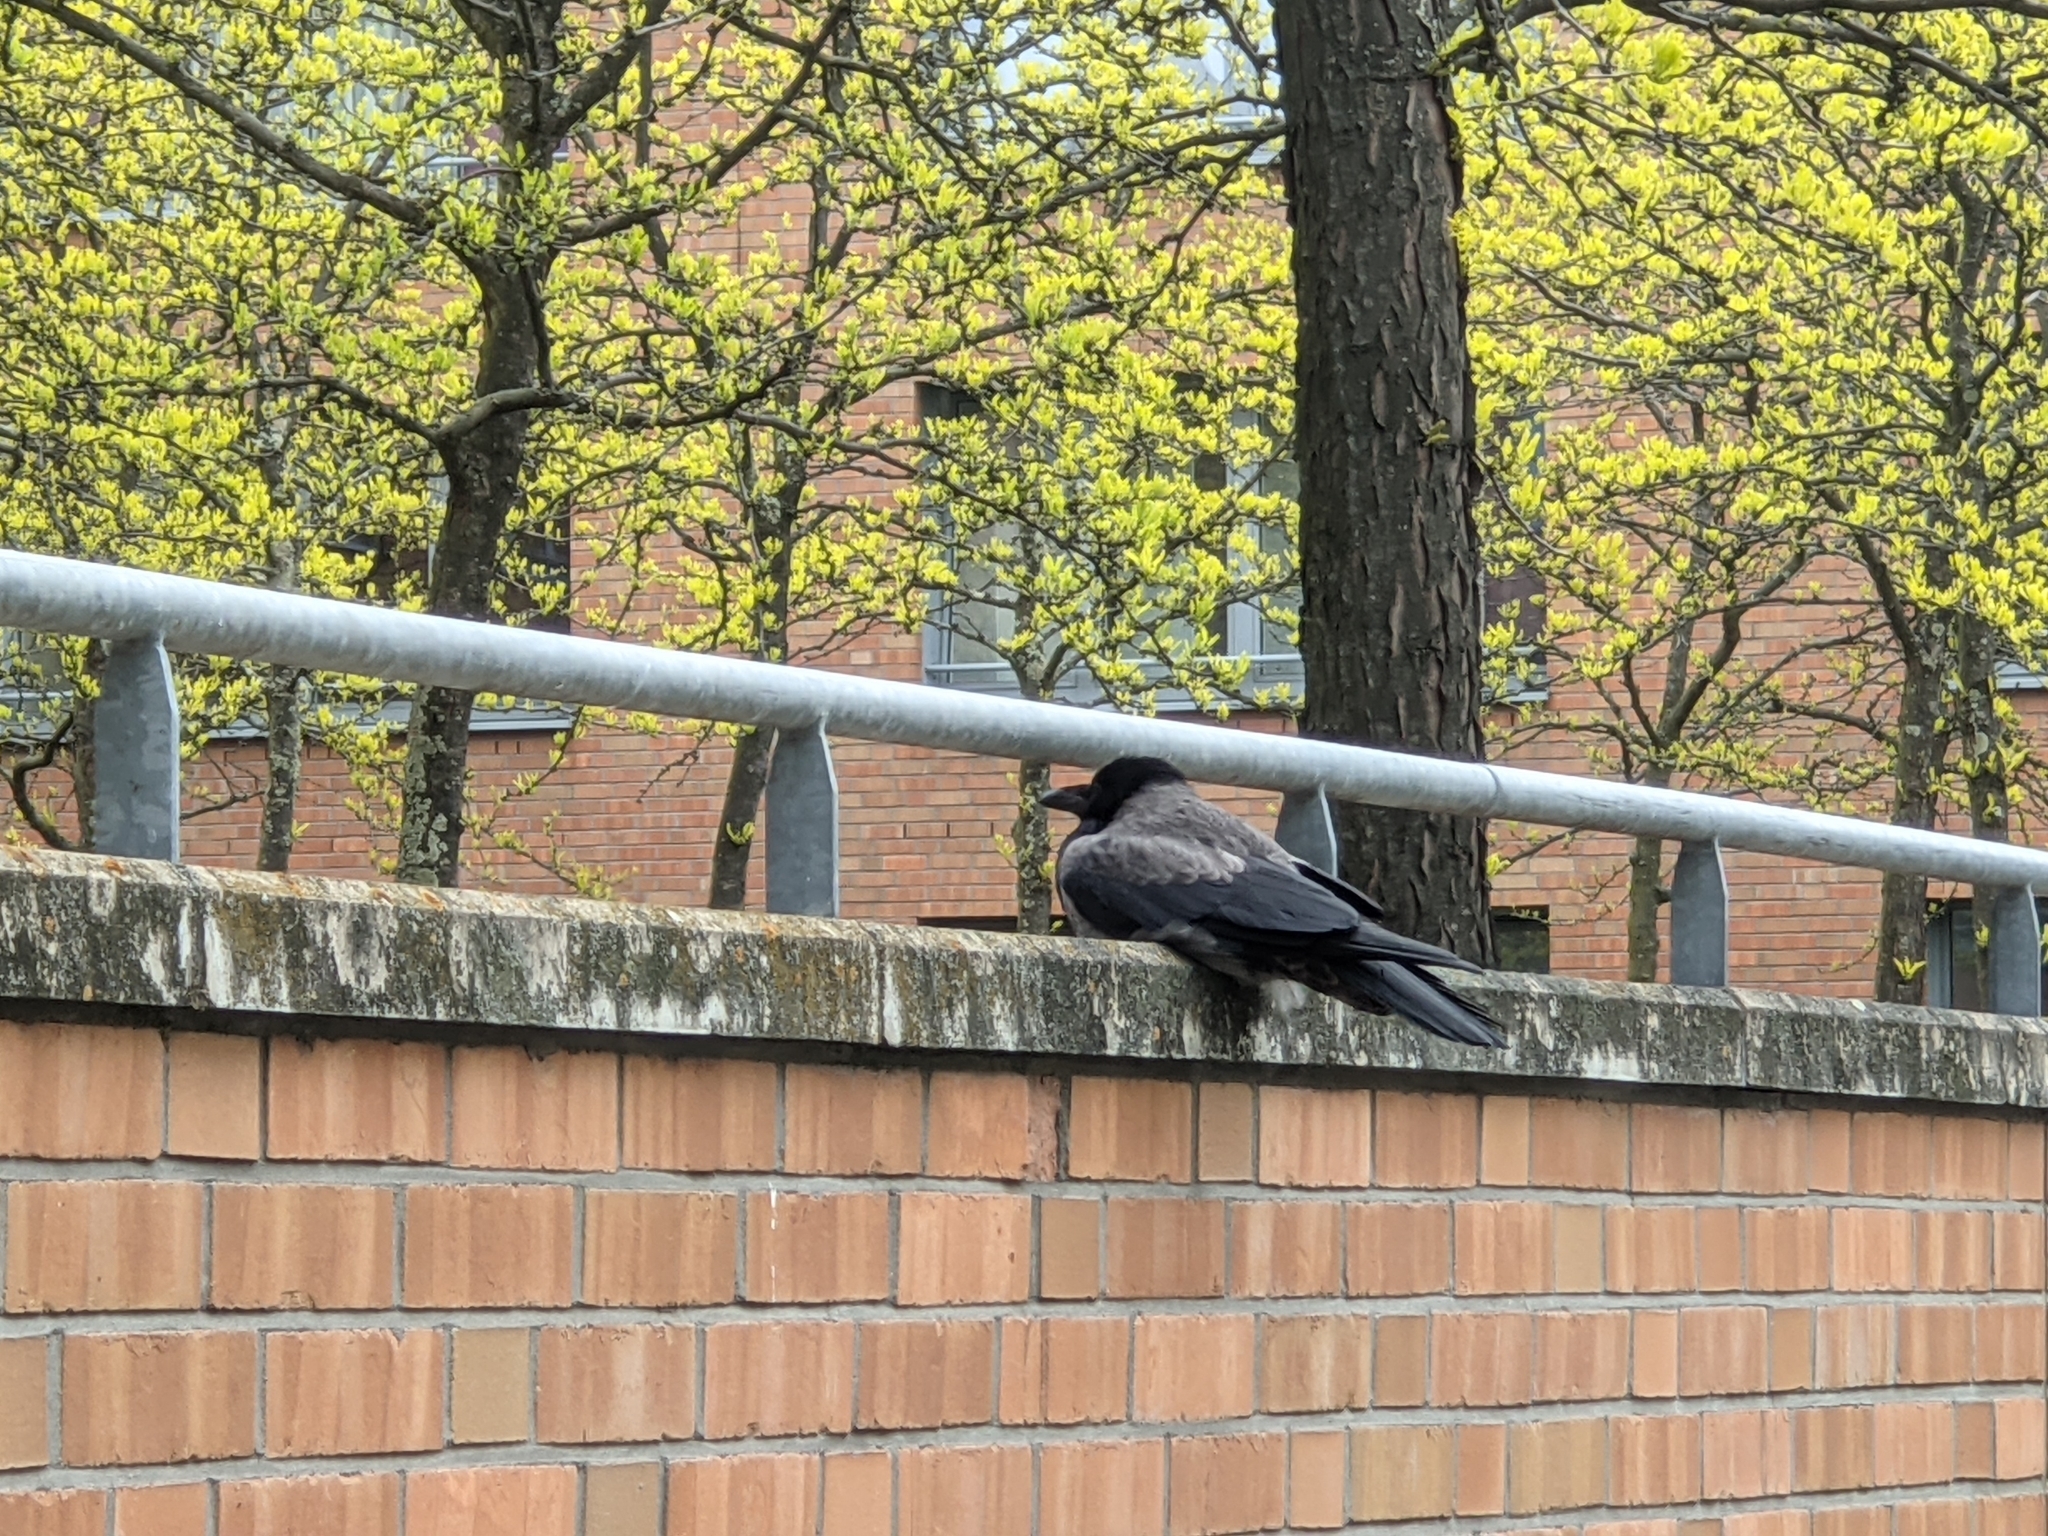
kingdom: Animalia
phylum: Chordata
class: Aves
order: Passeriformes
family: Corvidae
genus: Corvus
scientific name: Corvus
